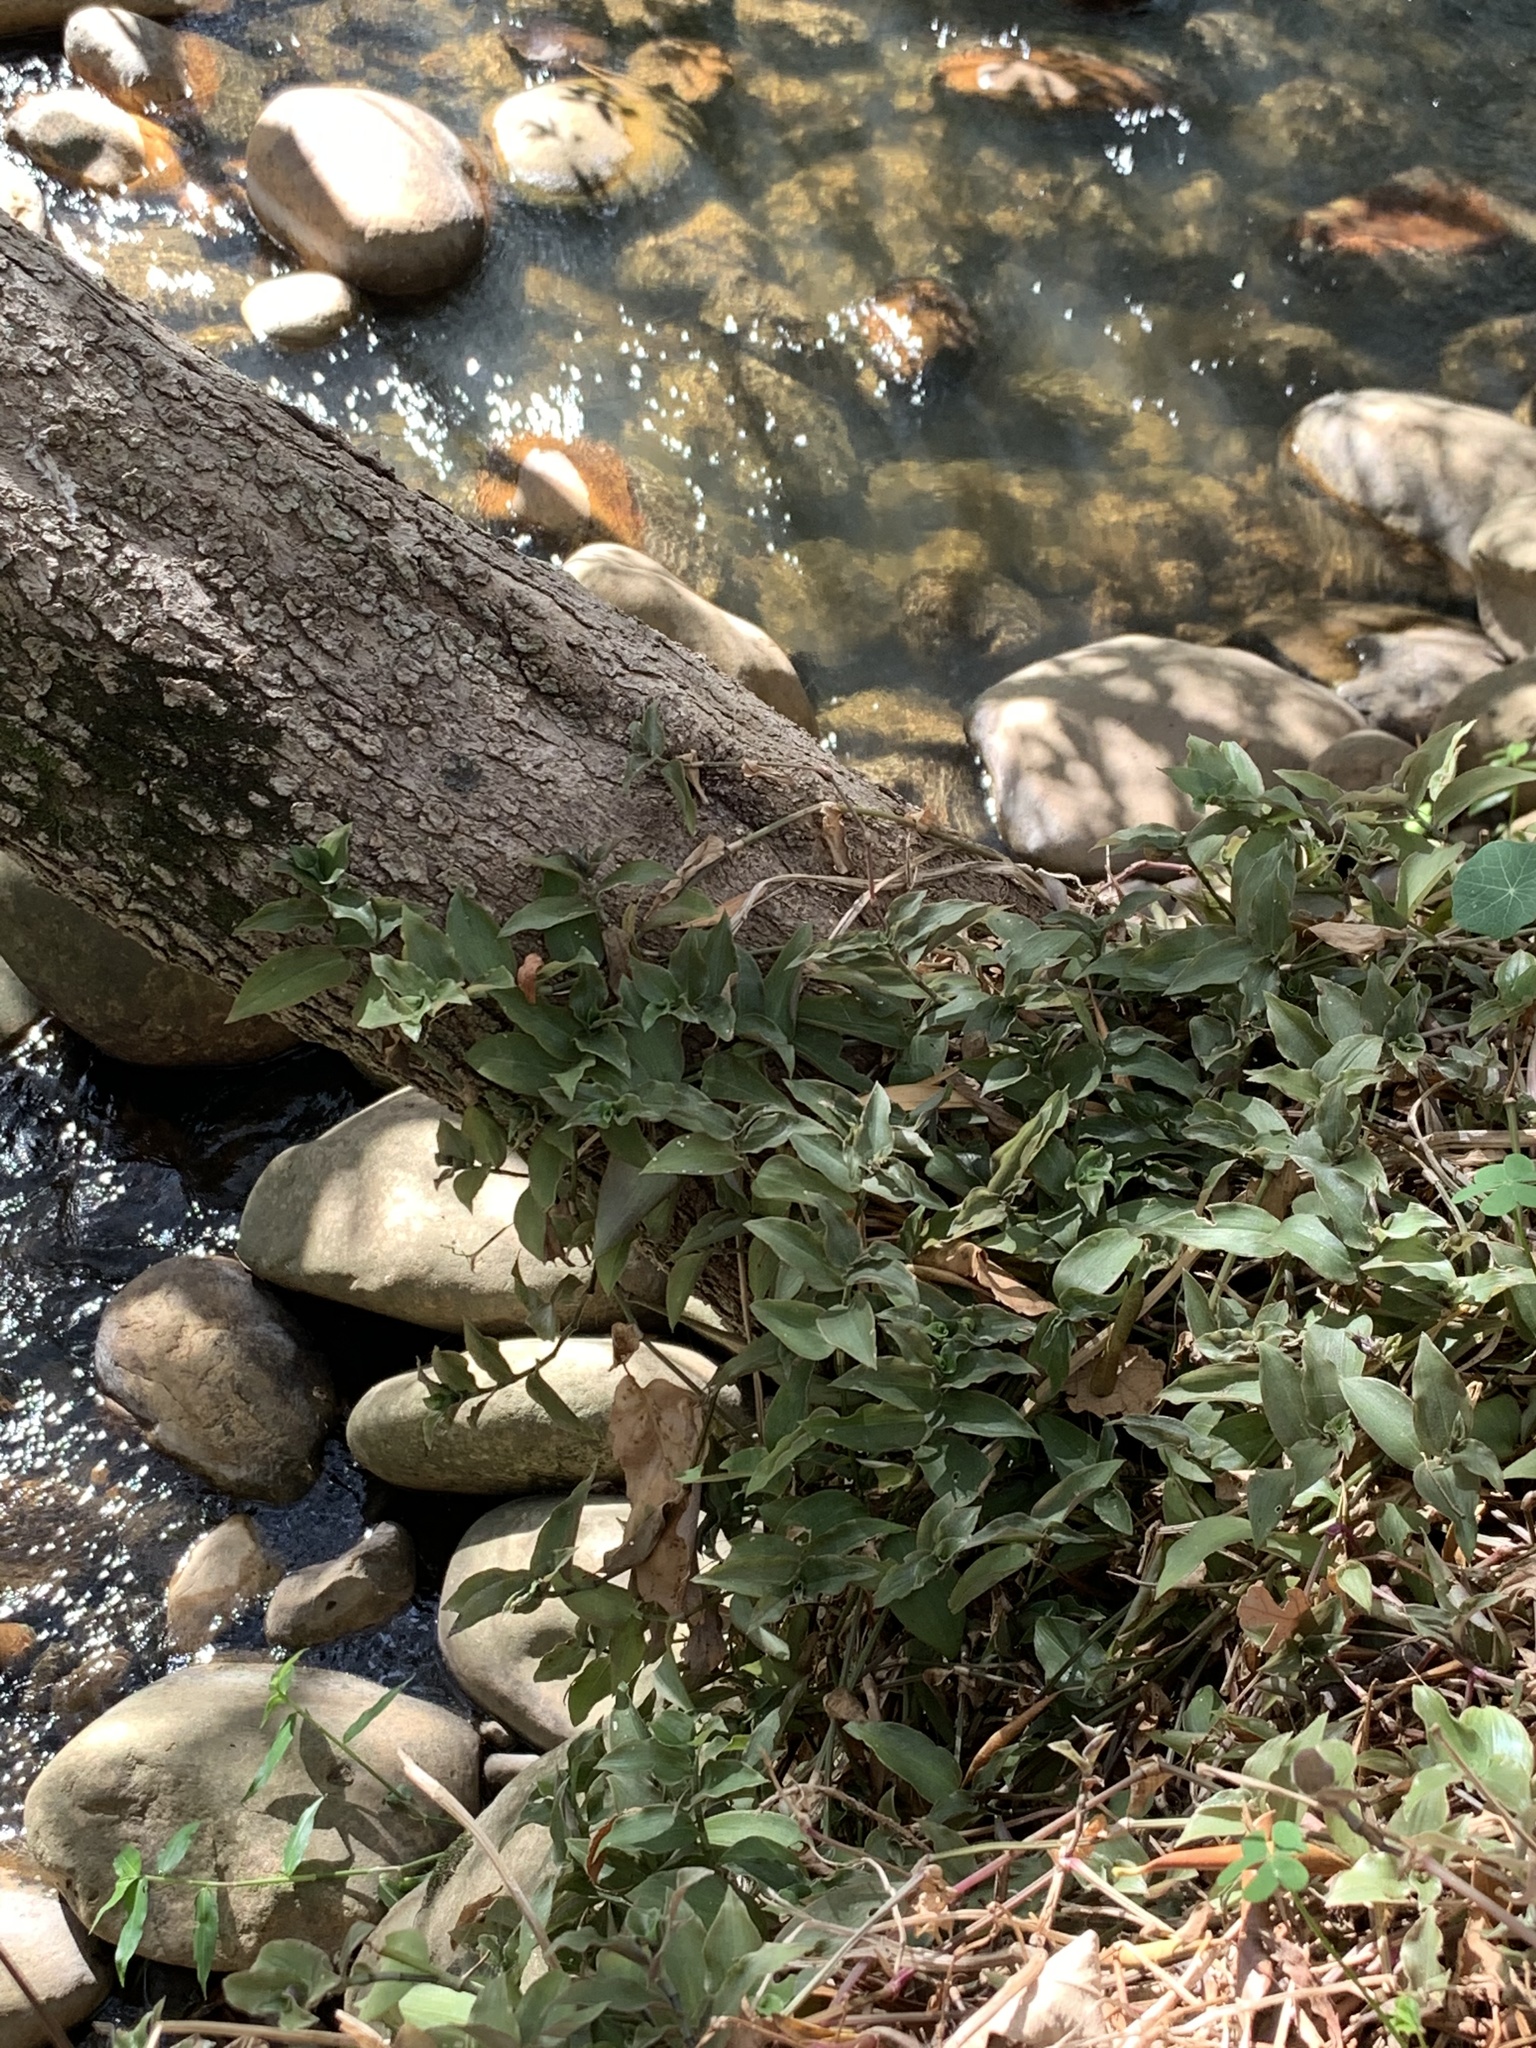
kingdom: Plantae
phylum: Tracheophyta
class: Liliopsida
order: Commelinales
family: Commelinaceae
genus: Tradescantia
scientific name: Tradescantia fluminensis
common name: Wandering-jew
